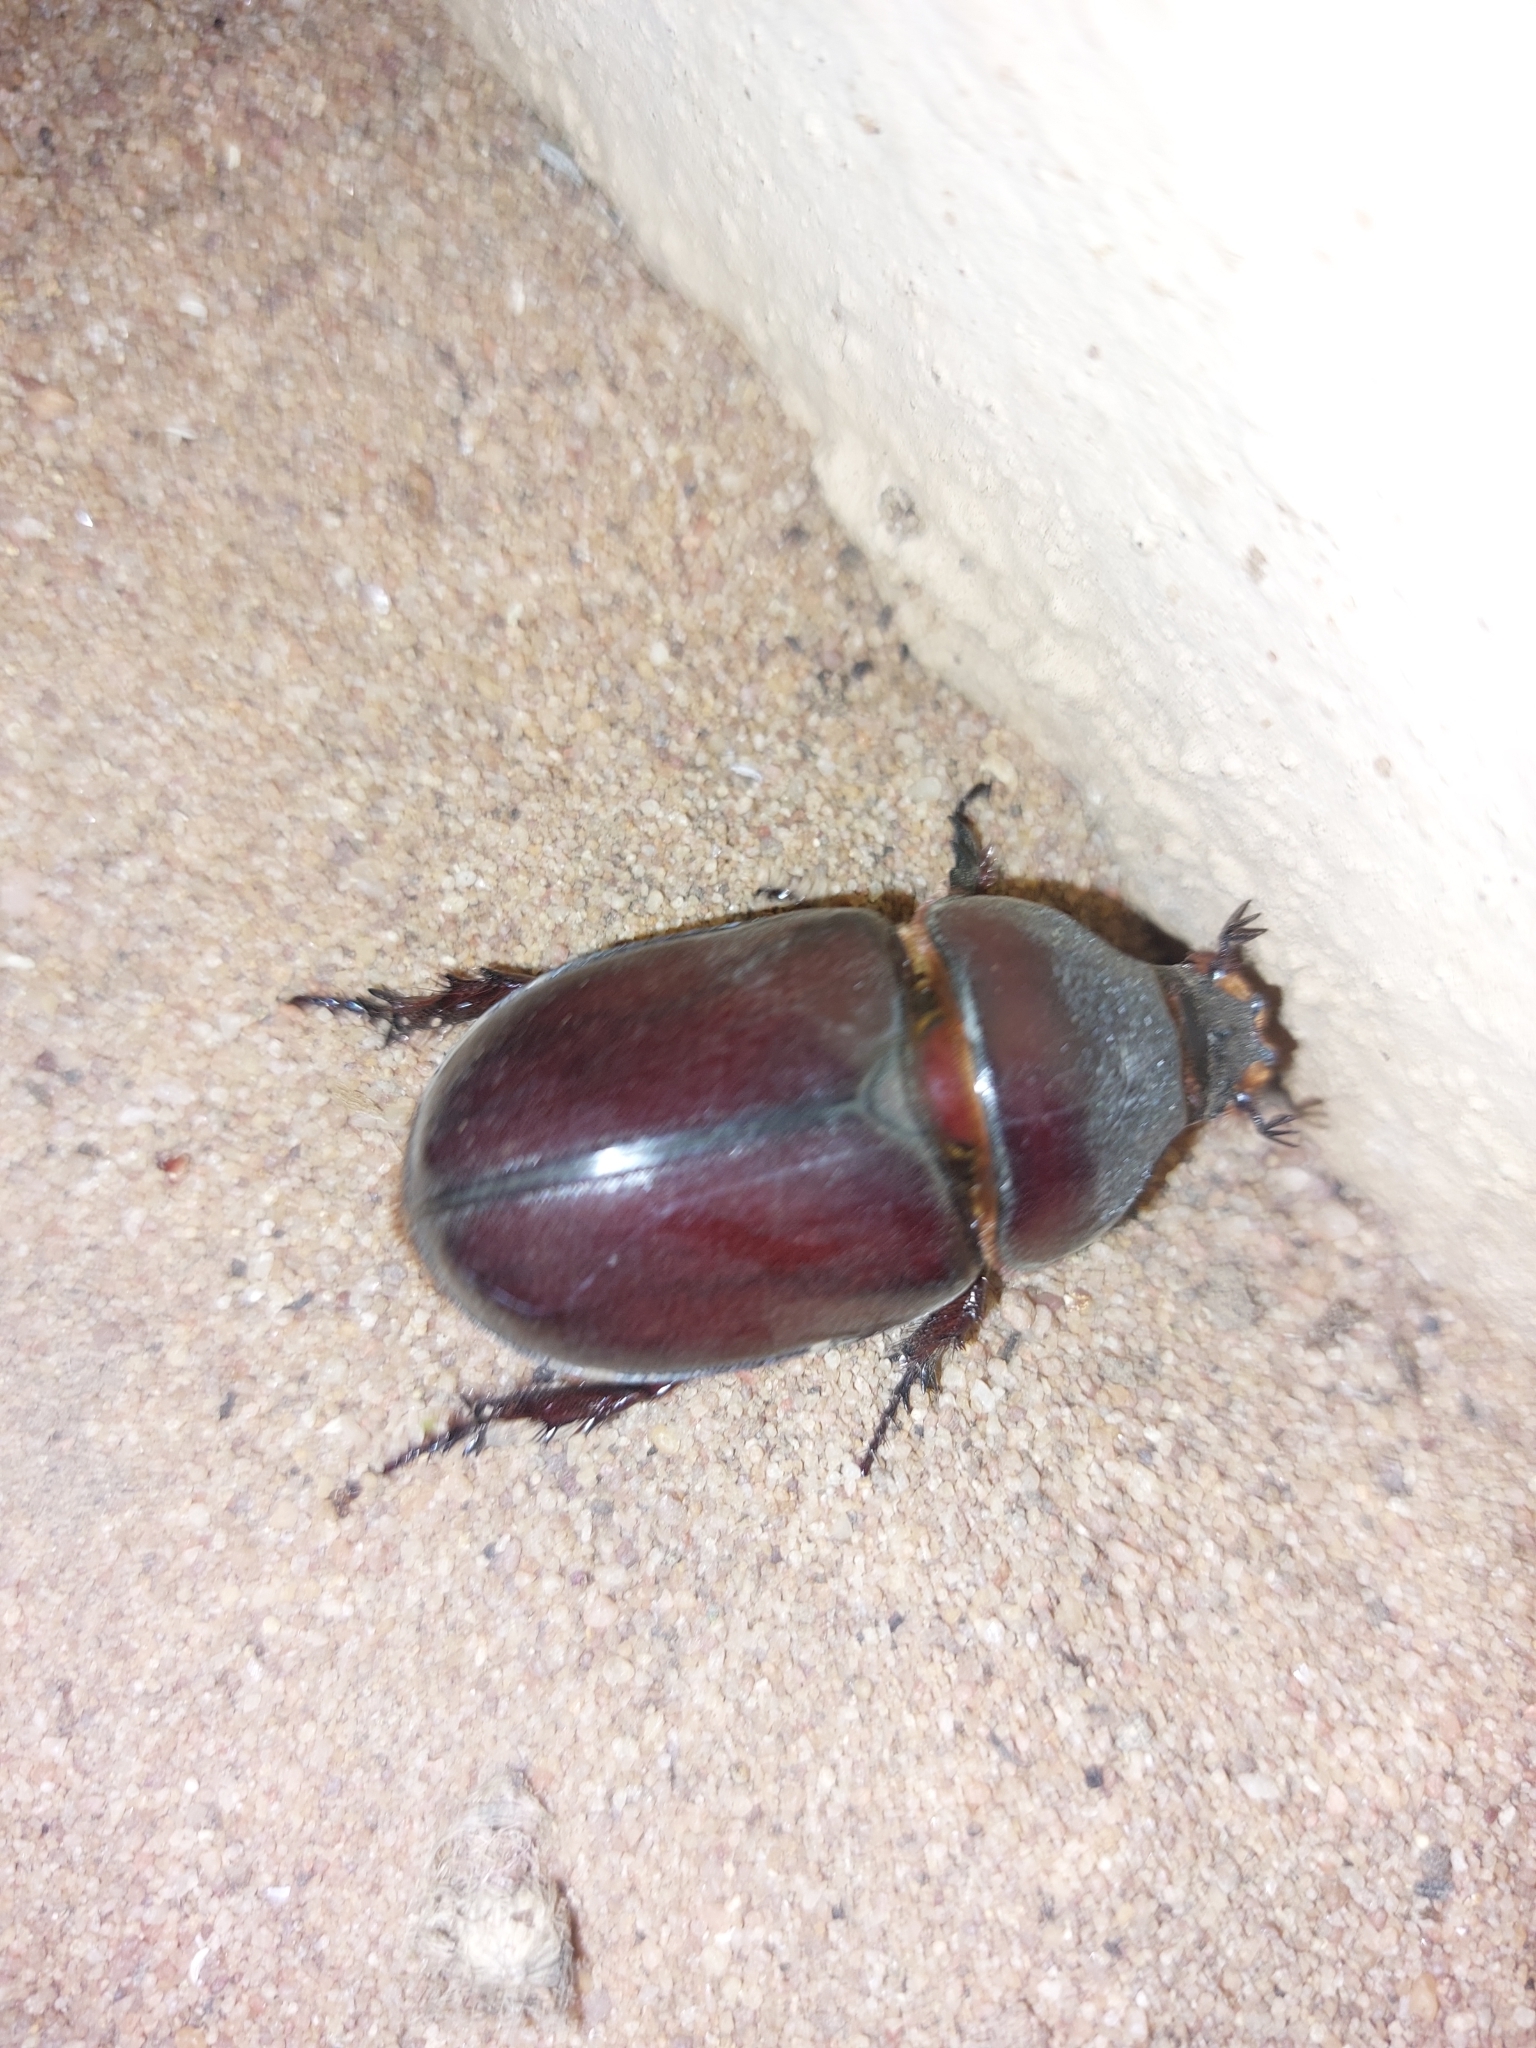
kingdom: Animalia
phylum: Arthropoda
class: Insecta
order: Coleoptera
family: Scarabaeidae
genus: Oryctes
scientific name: Oryctes boas
